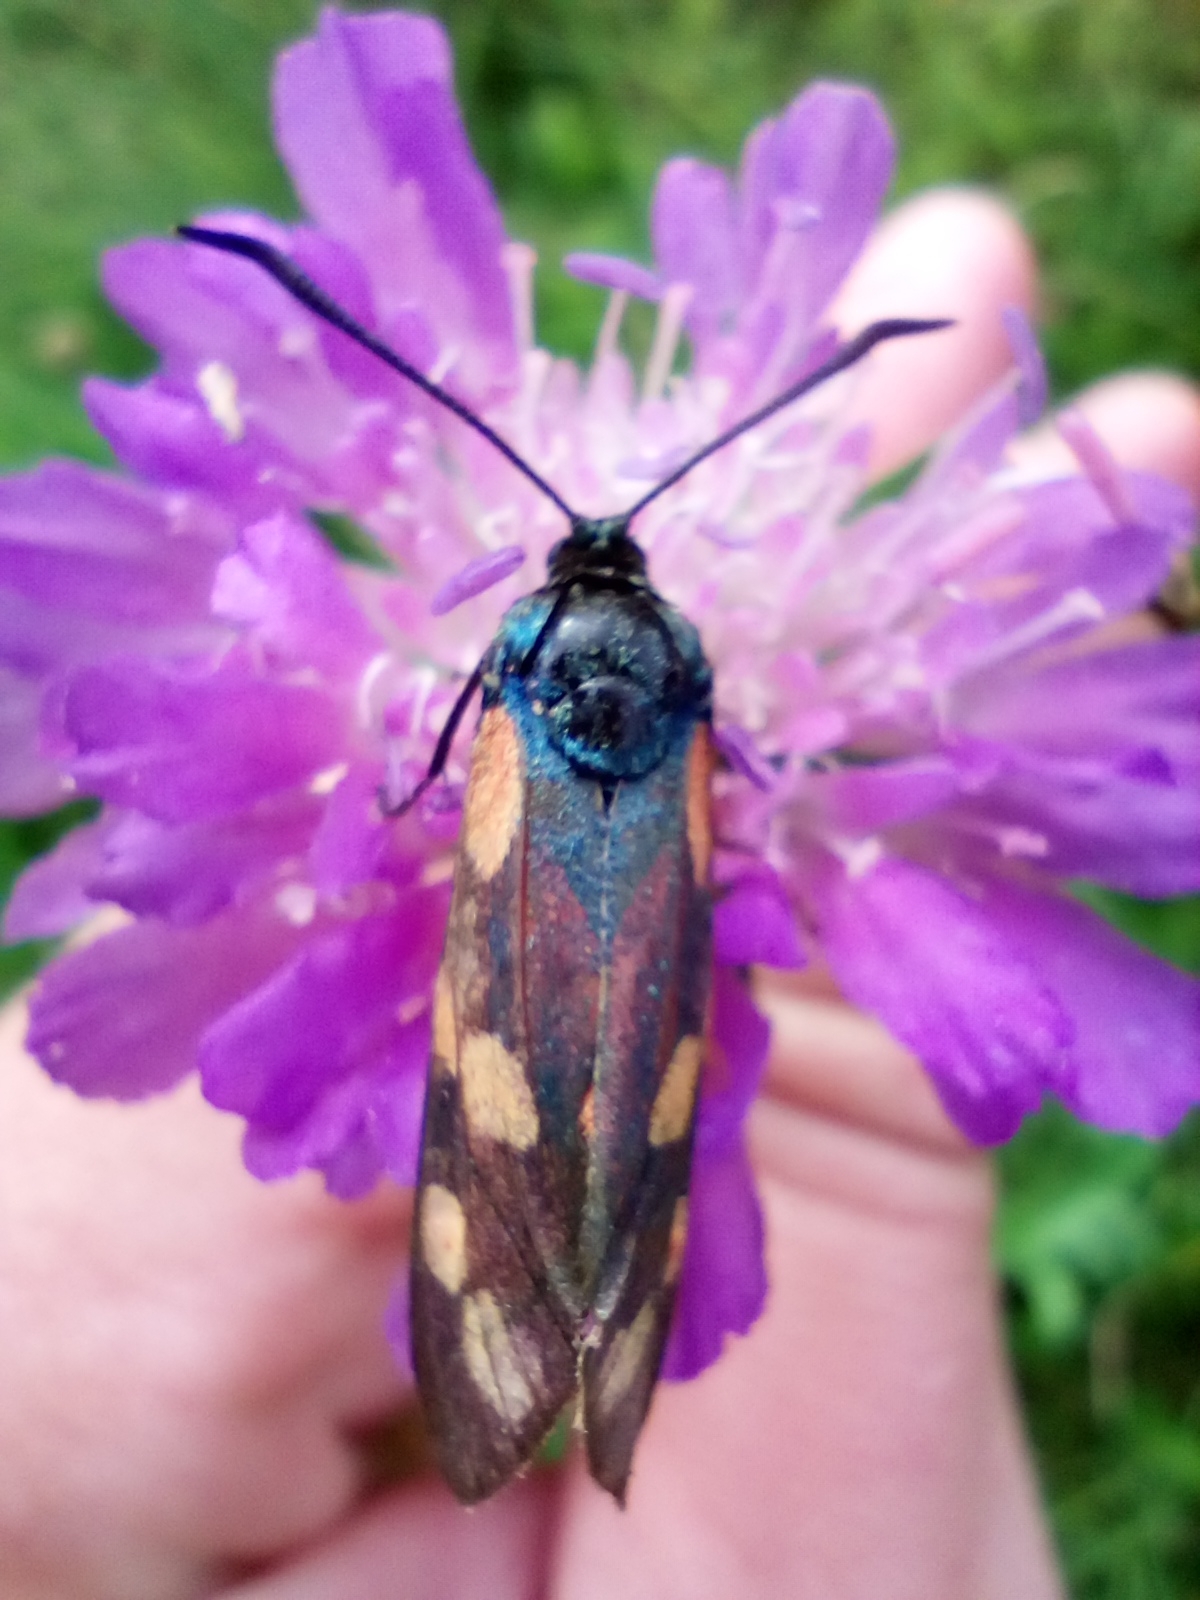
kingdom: Animalia
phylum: Arthropoda
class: Insecta
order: Lepidoptera
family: Zygaenidae
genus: Zygaena
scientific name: Zygaena filipendulae
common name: Six-spot burnet
